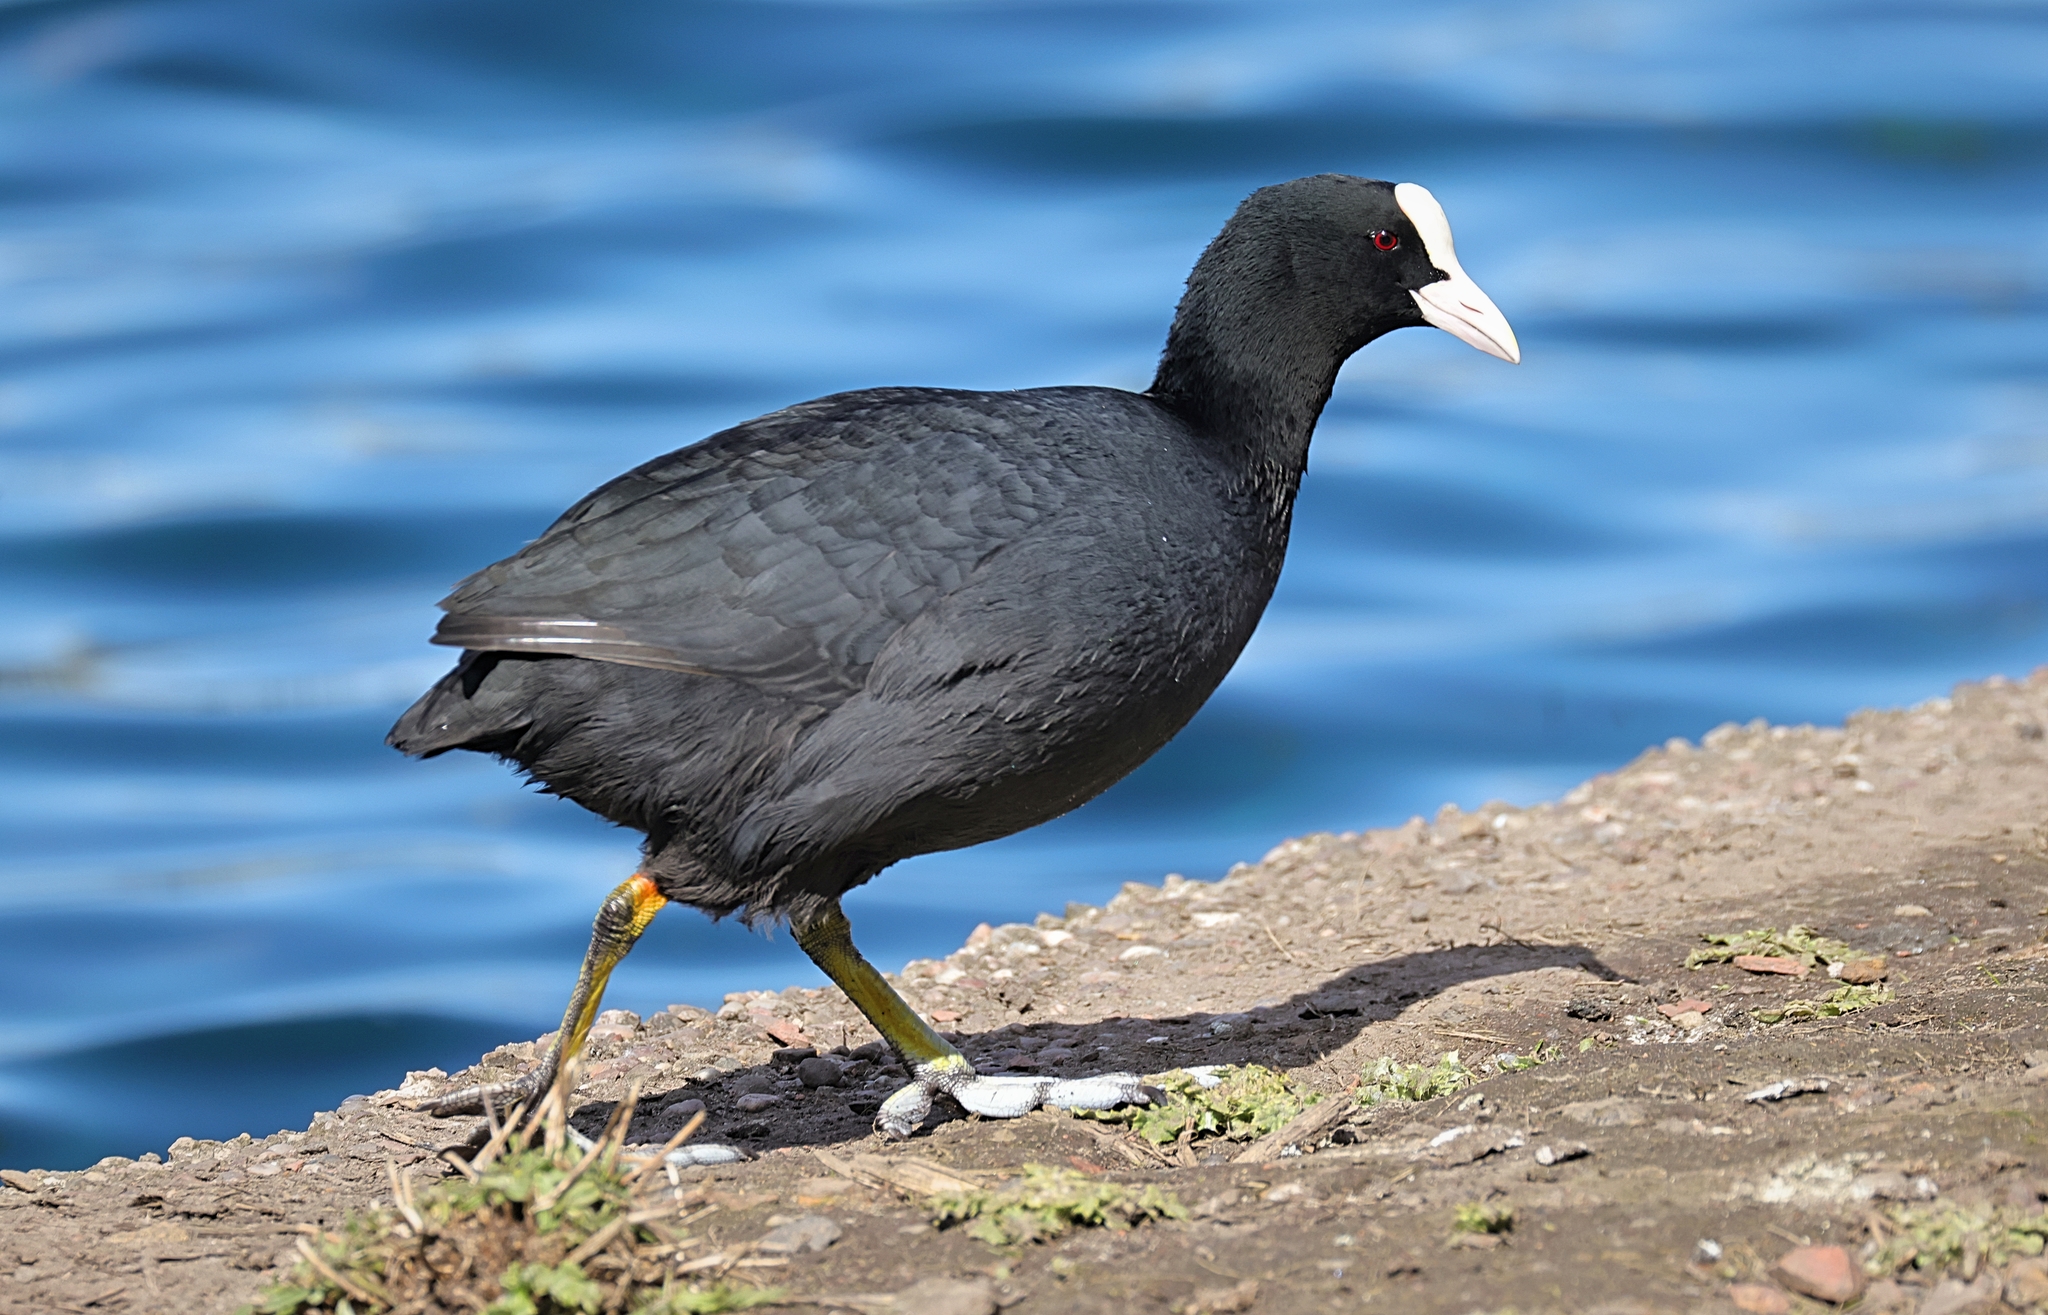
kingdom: Animalia
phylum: Chordata
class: Aves
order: Gruiformes
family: Rallidae
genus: Fulica
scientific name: Fulica atra
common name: Eurasian coot
